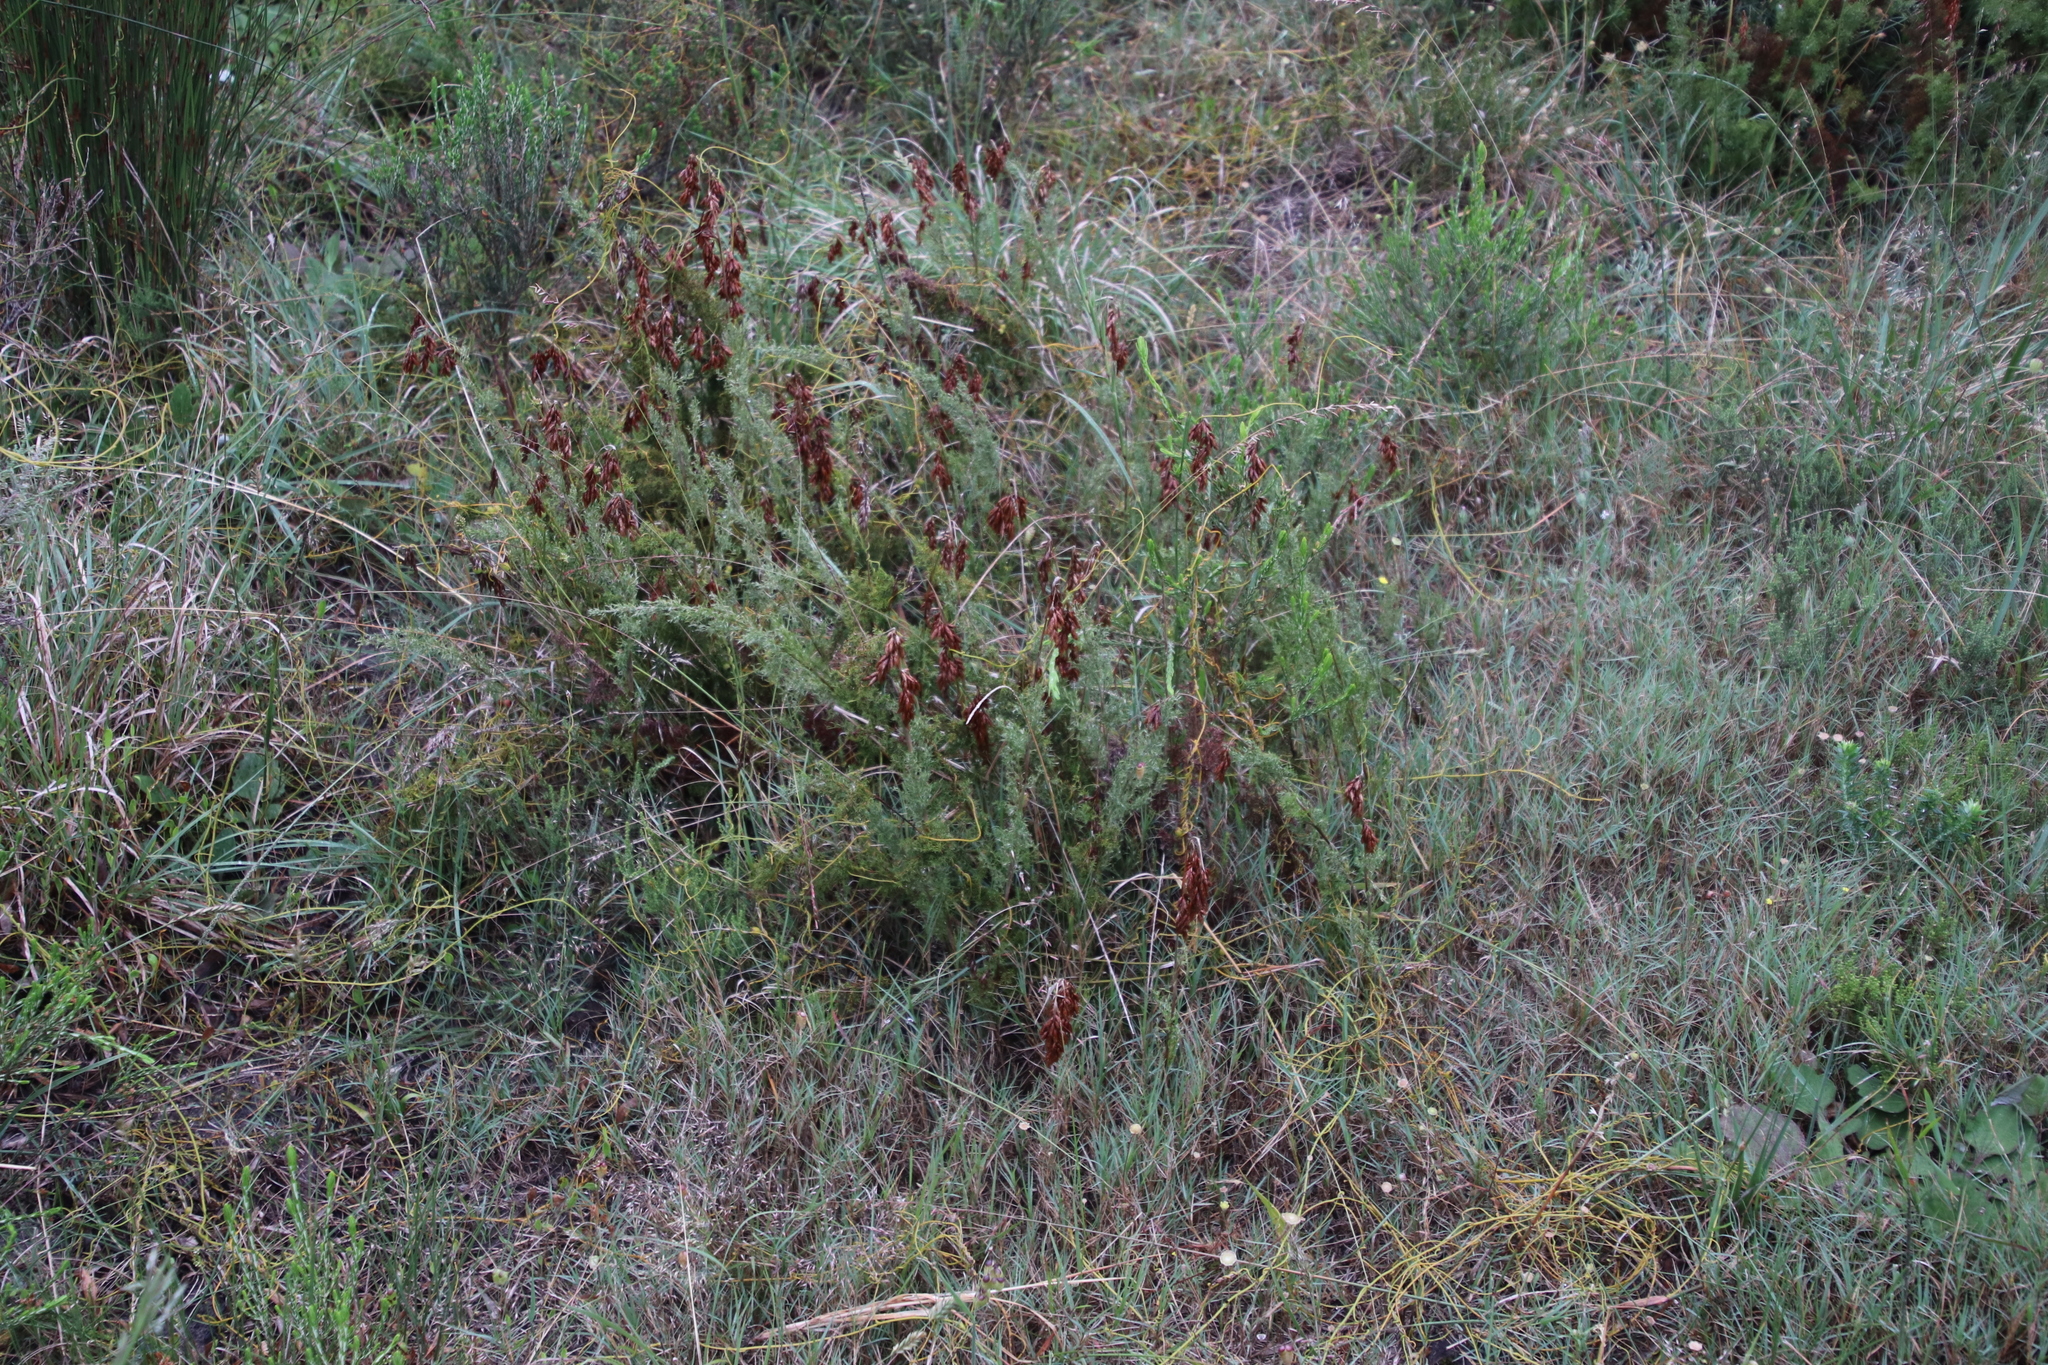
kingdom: Plantae
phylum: Tracheophyta
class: Liliopsida
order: Poales
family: Restionaceae
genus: Thamnochortus
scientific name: Thamnochortus fruticosus
